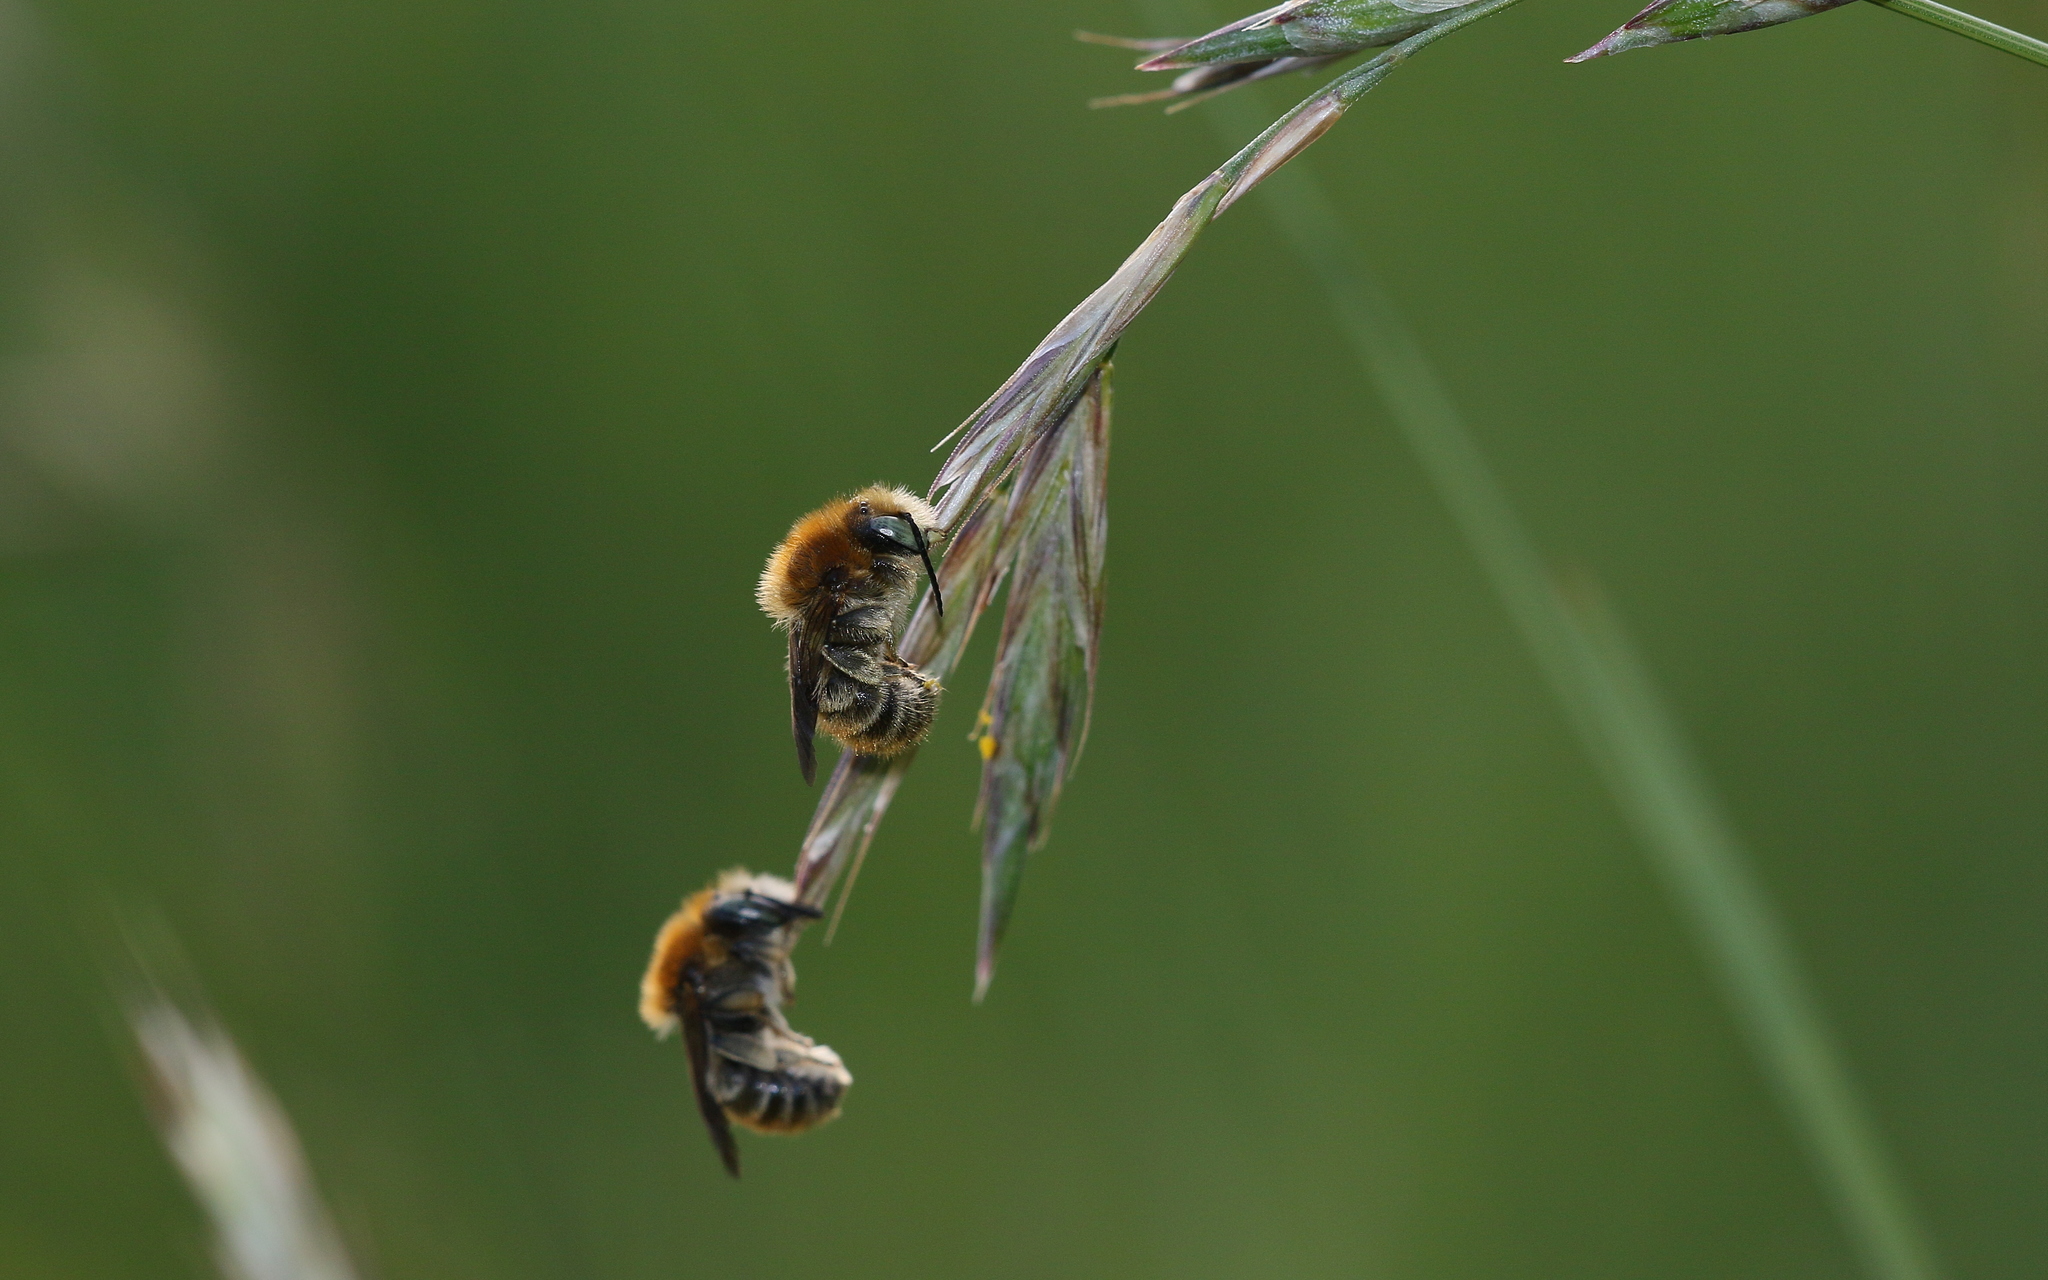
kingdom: Animalia
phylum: Arthropoda
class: Insecta
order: Hymenoptera
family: Megachilidae
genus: Trachusa
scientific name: Trachusa byssina
